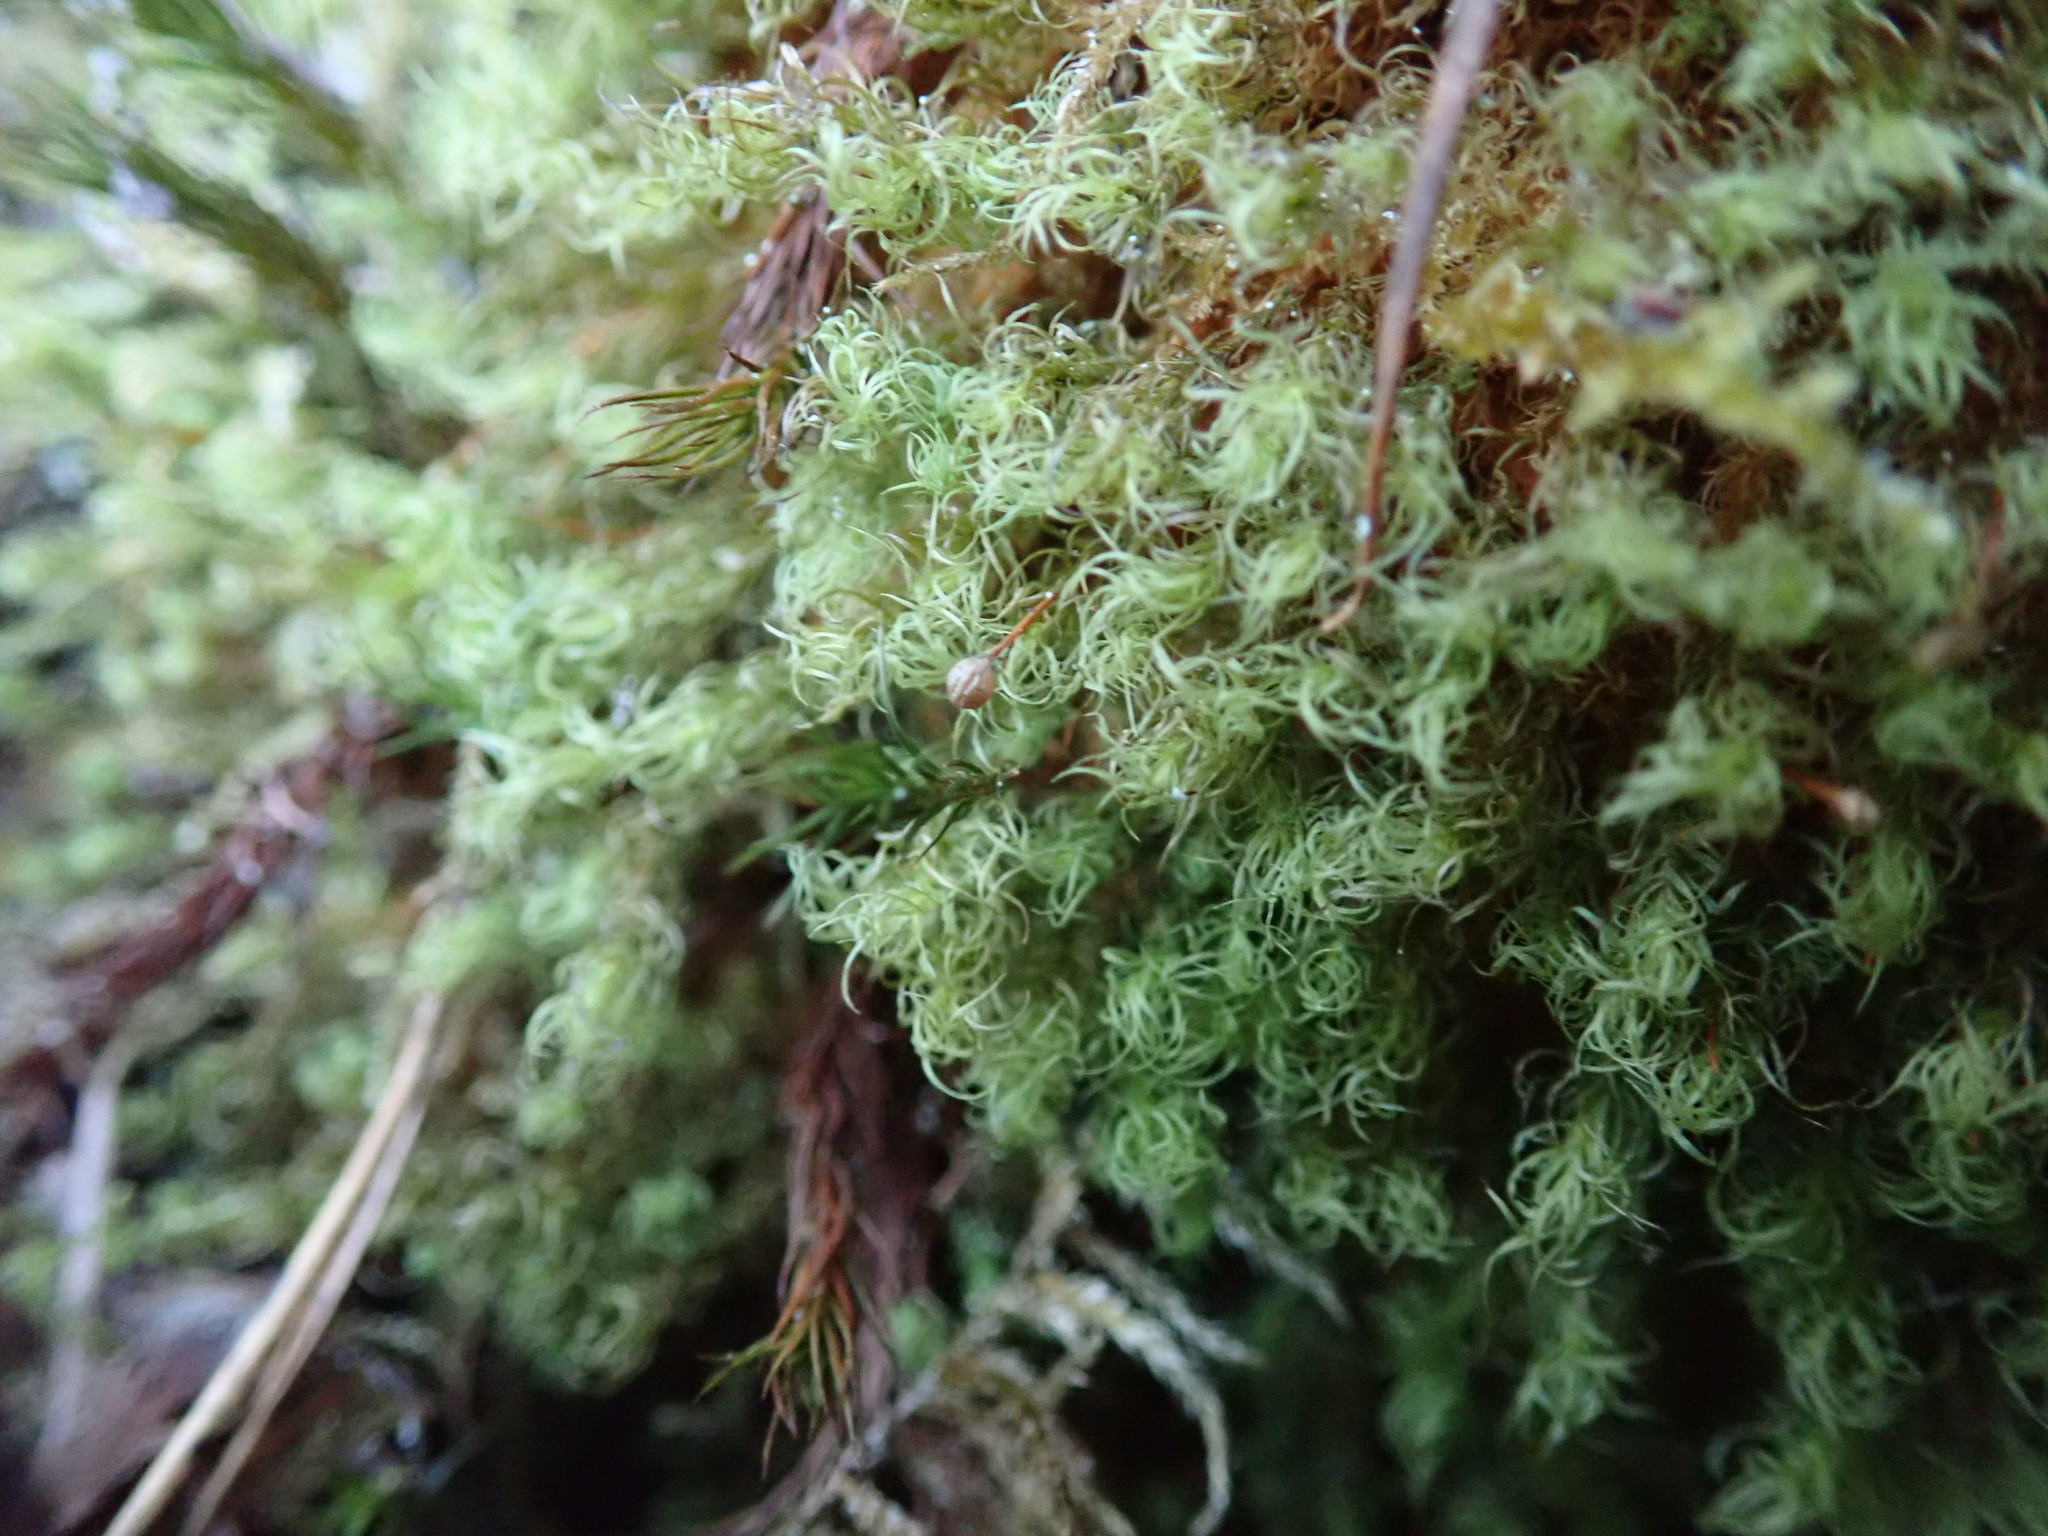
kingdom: Plantae
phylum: Bryophyta
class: Bryopsida
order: Bartramiales
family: Bartramiaceae
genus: Bartramia
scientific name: Bartramia ithyphylla
